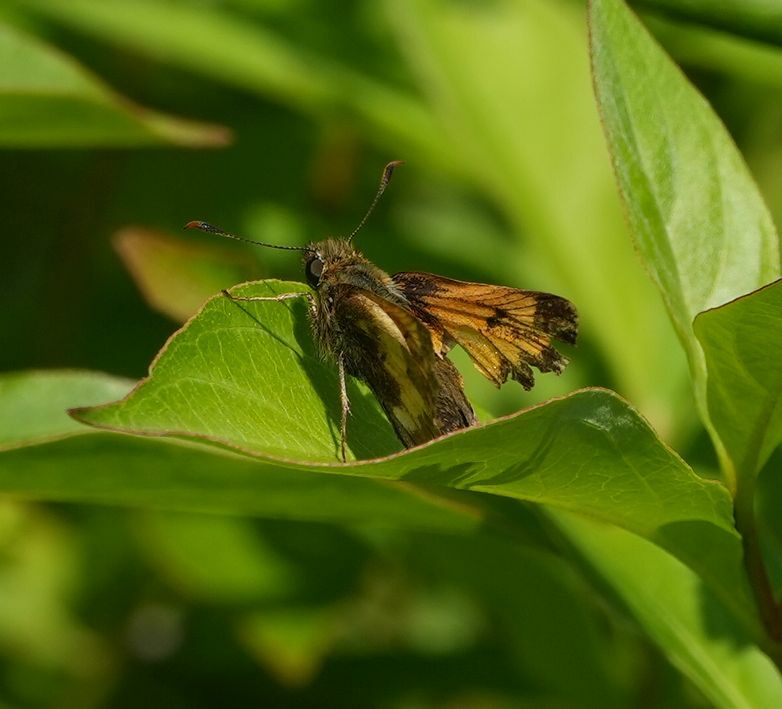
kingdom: Animalia
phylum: Arthropoda
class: Insecta
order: Lepidoptera
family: Hesperiidae
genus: Lon
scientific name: Lon hobomok
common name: Hobomok skipper
